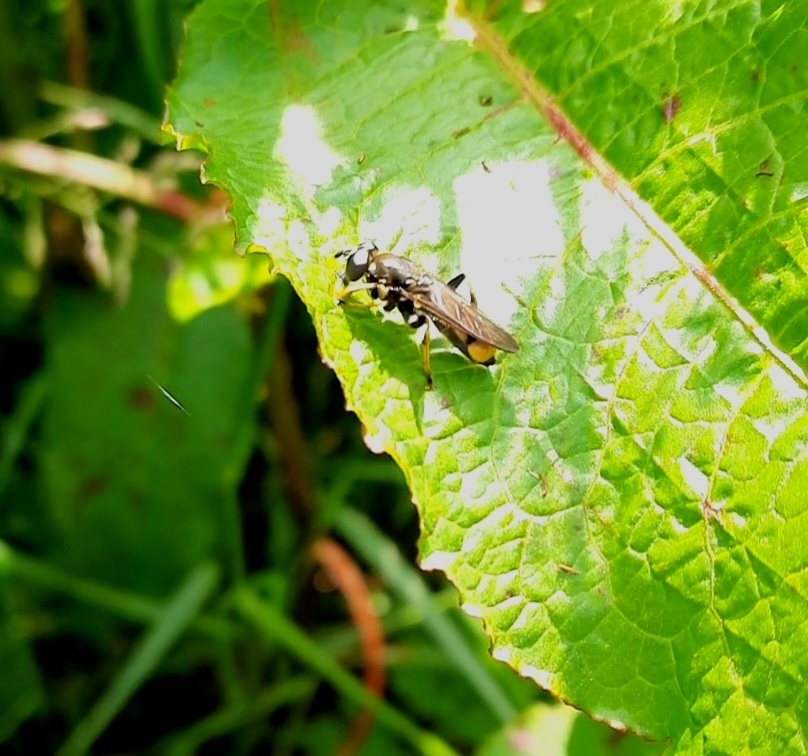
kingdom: Animalia
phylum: Arthropoda
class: Insecta
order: Diptera
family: Syrphidae
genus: Xylota
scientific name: Xylota sylvarum
